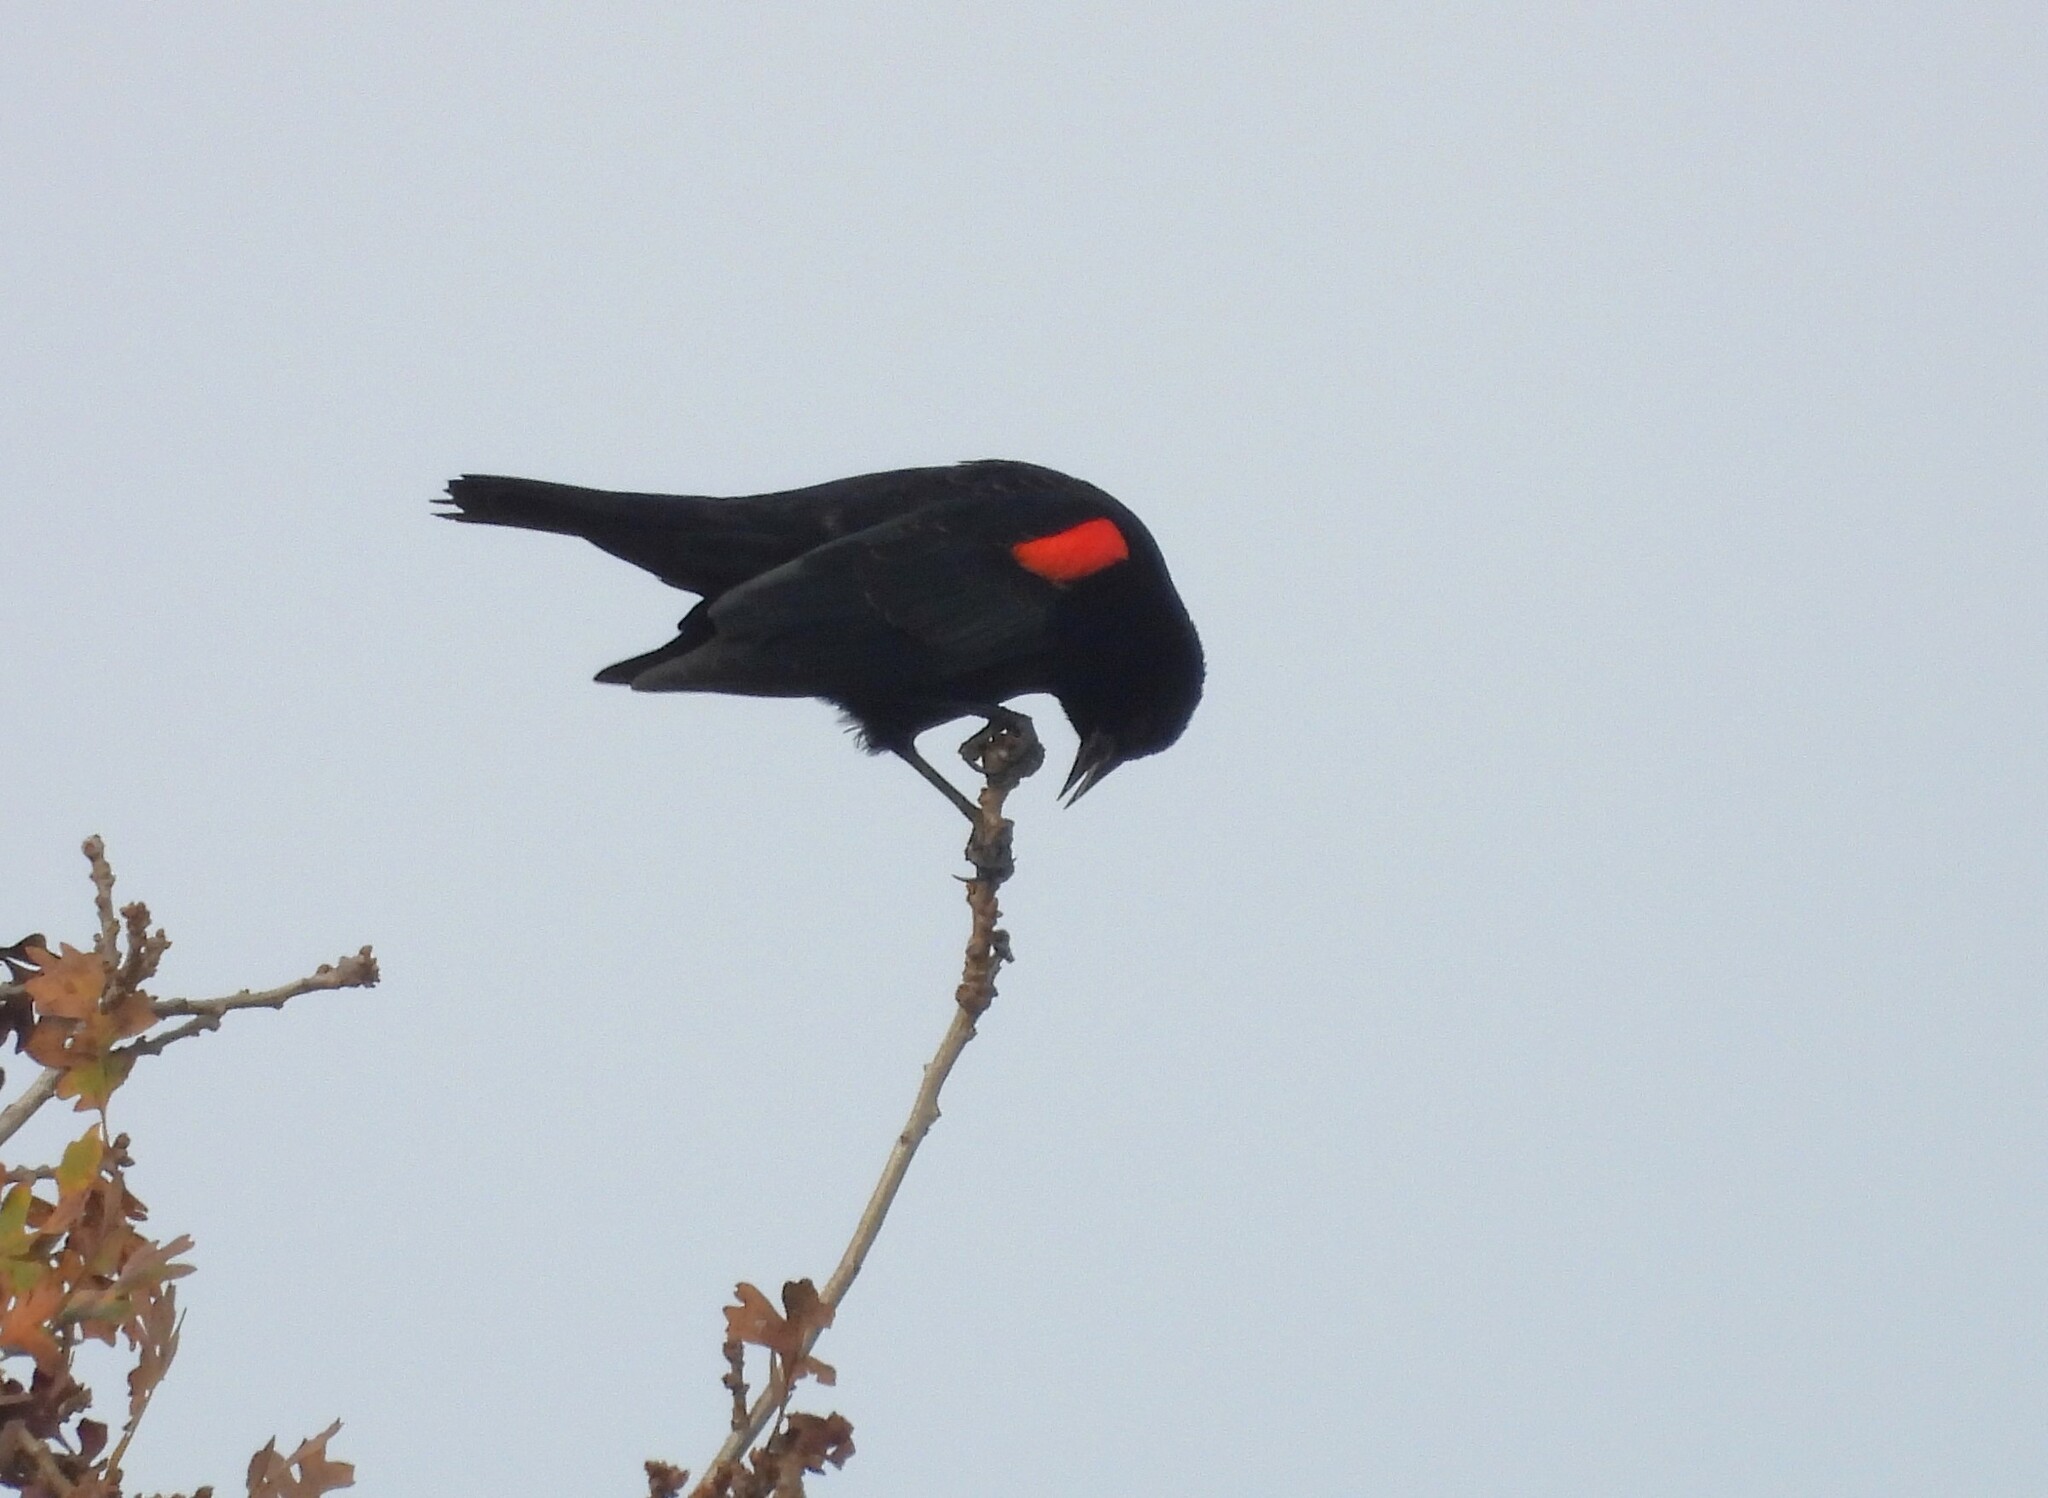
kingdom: Animalia
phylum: Chordata
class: Aves
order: Passeriformes
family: Icteridae
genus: Agelaius
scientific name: Agelaius phoeniceus
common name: Red-winged blackbird
